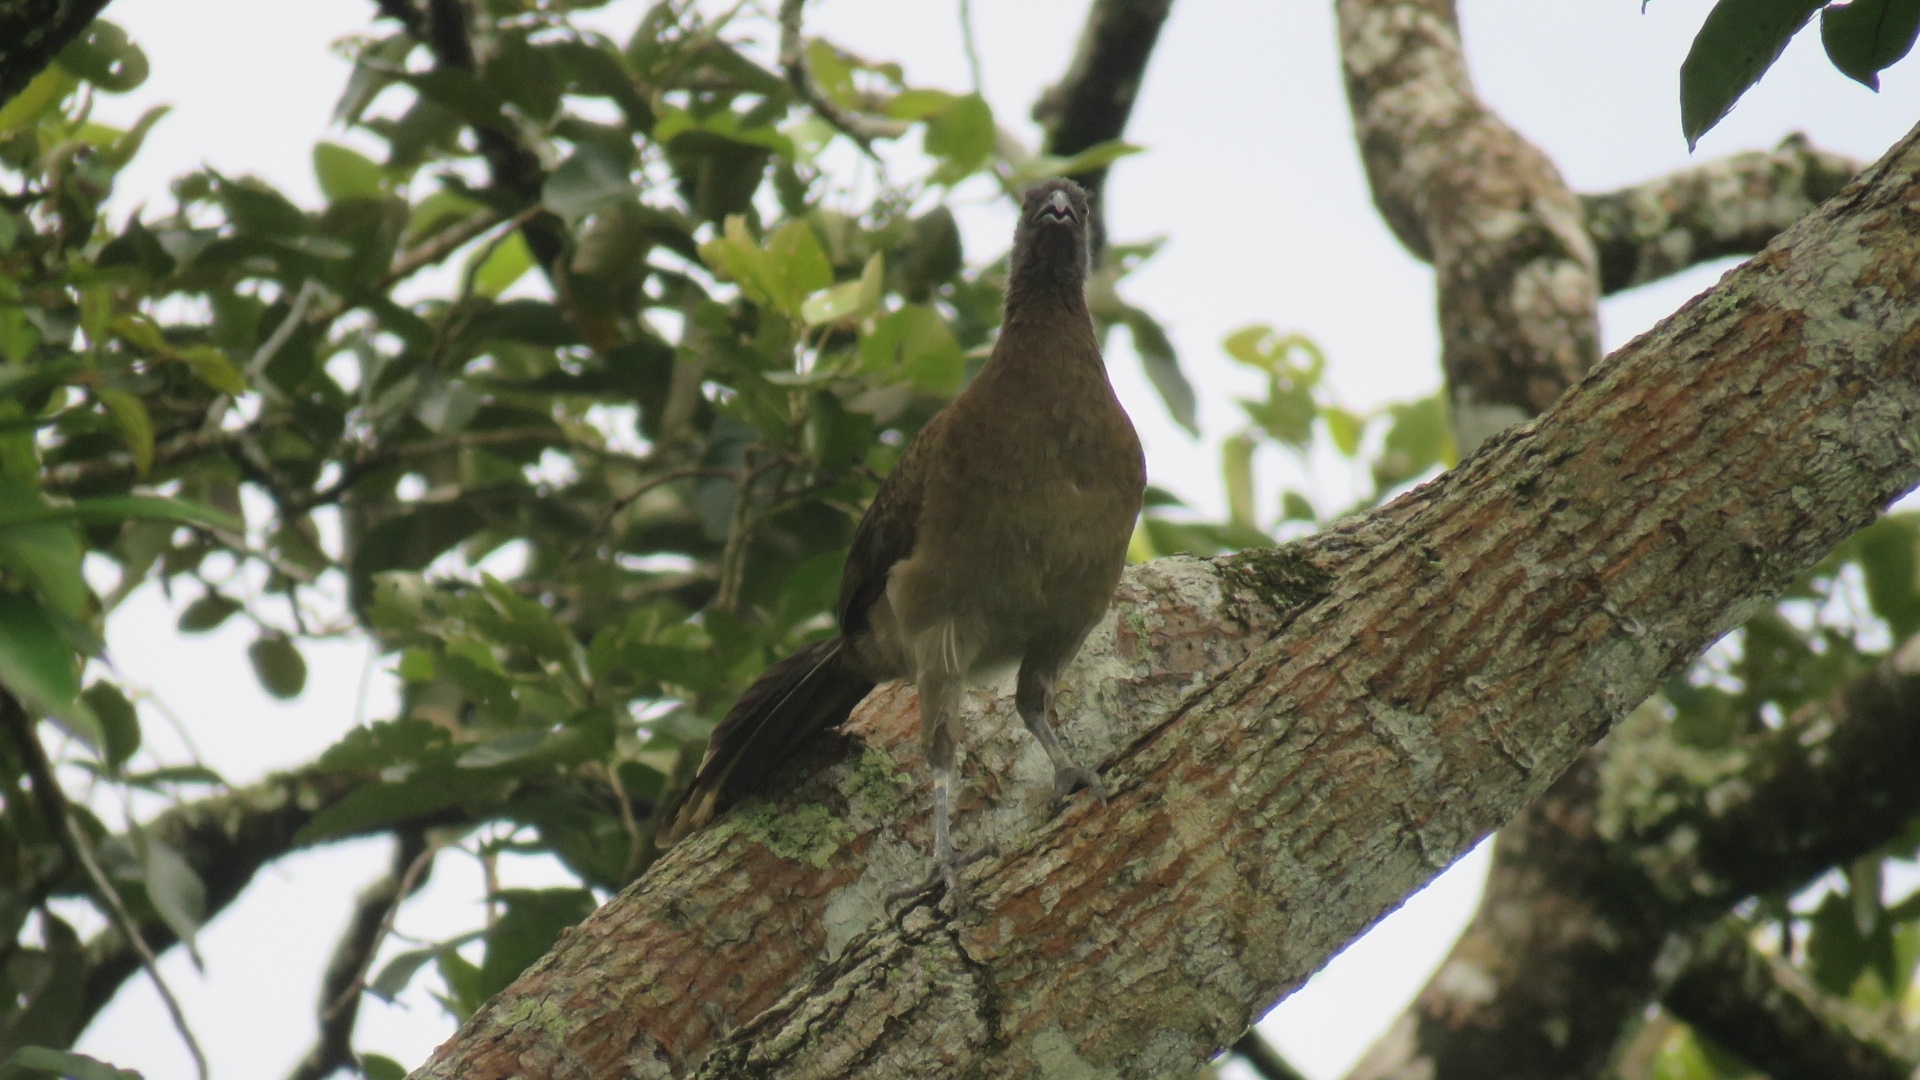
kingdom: Animalia
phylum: Chordata
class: Aves
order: Galliformes
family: Cracidae
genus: Ortalis
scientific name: Ortalis cinereiceps
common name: Grey-headed chachalaca
